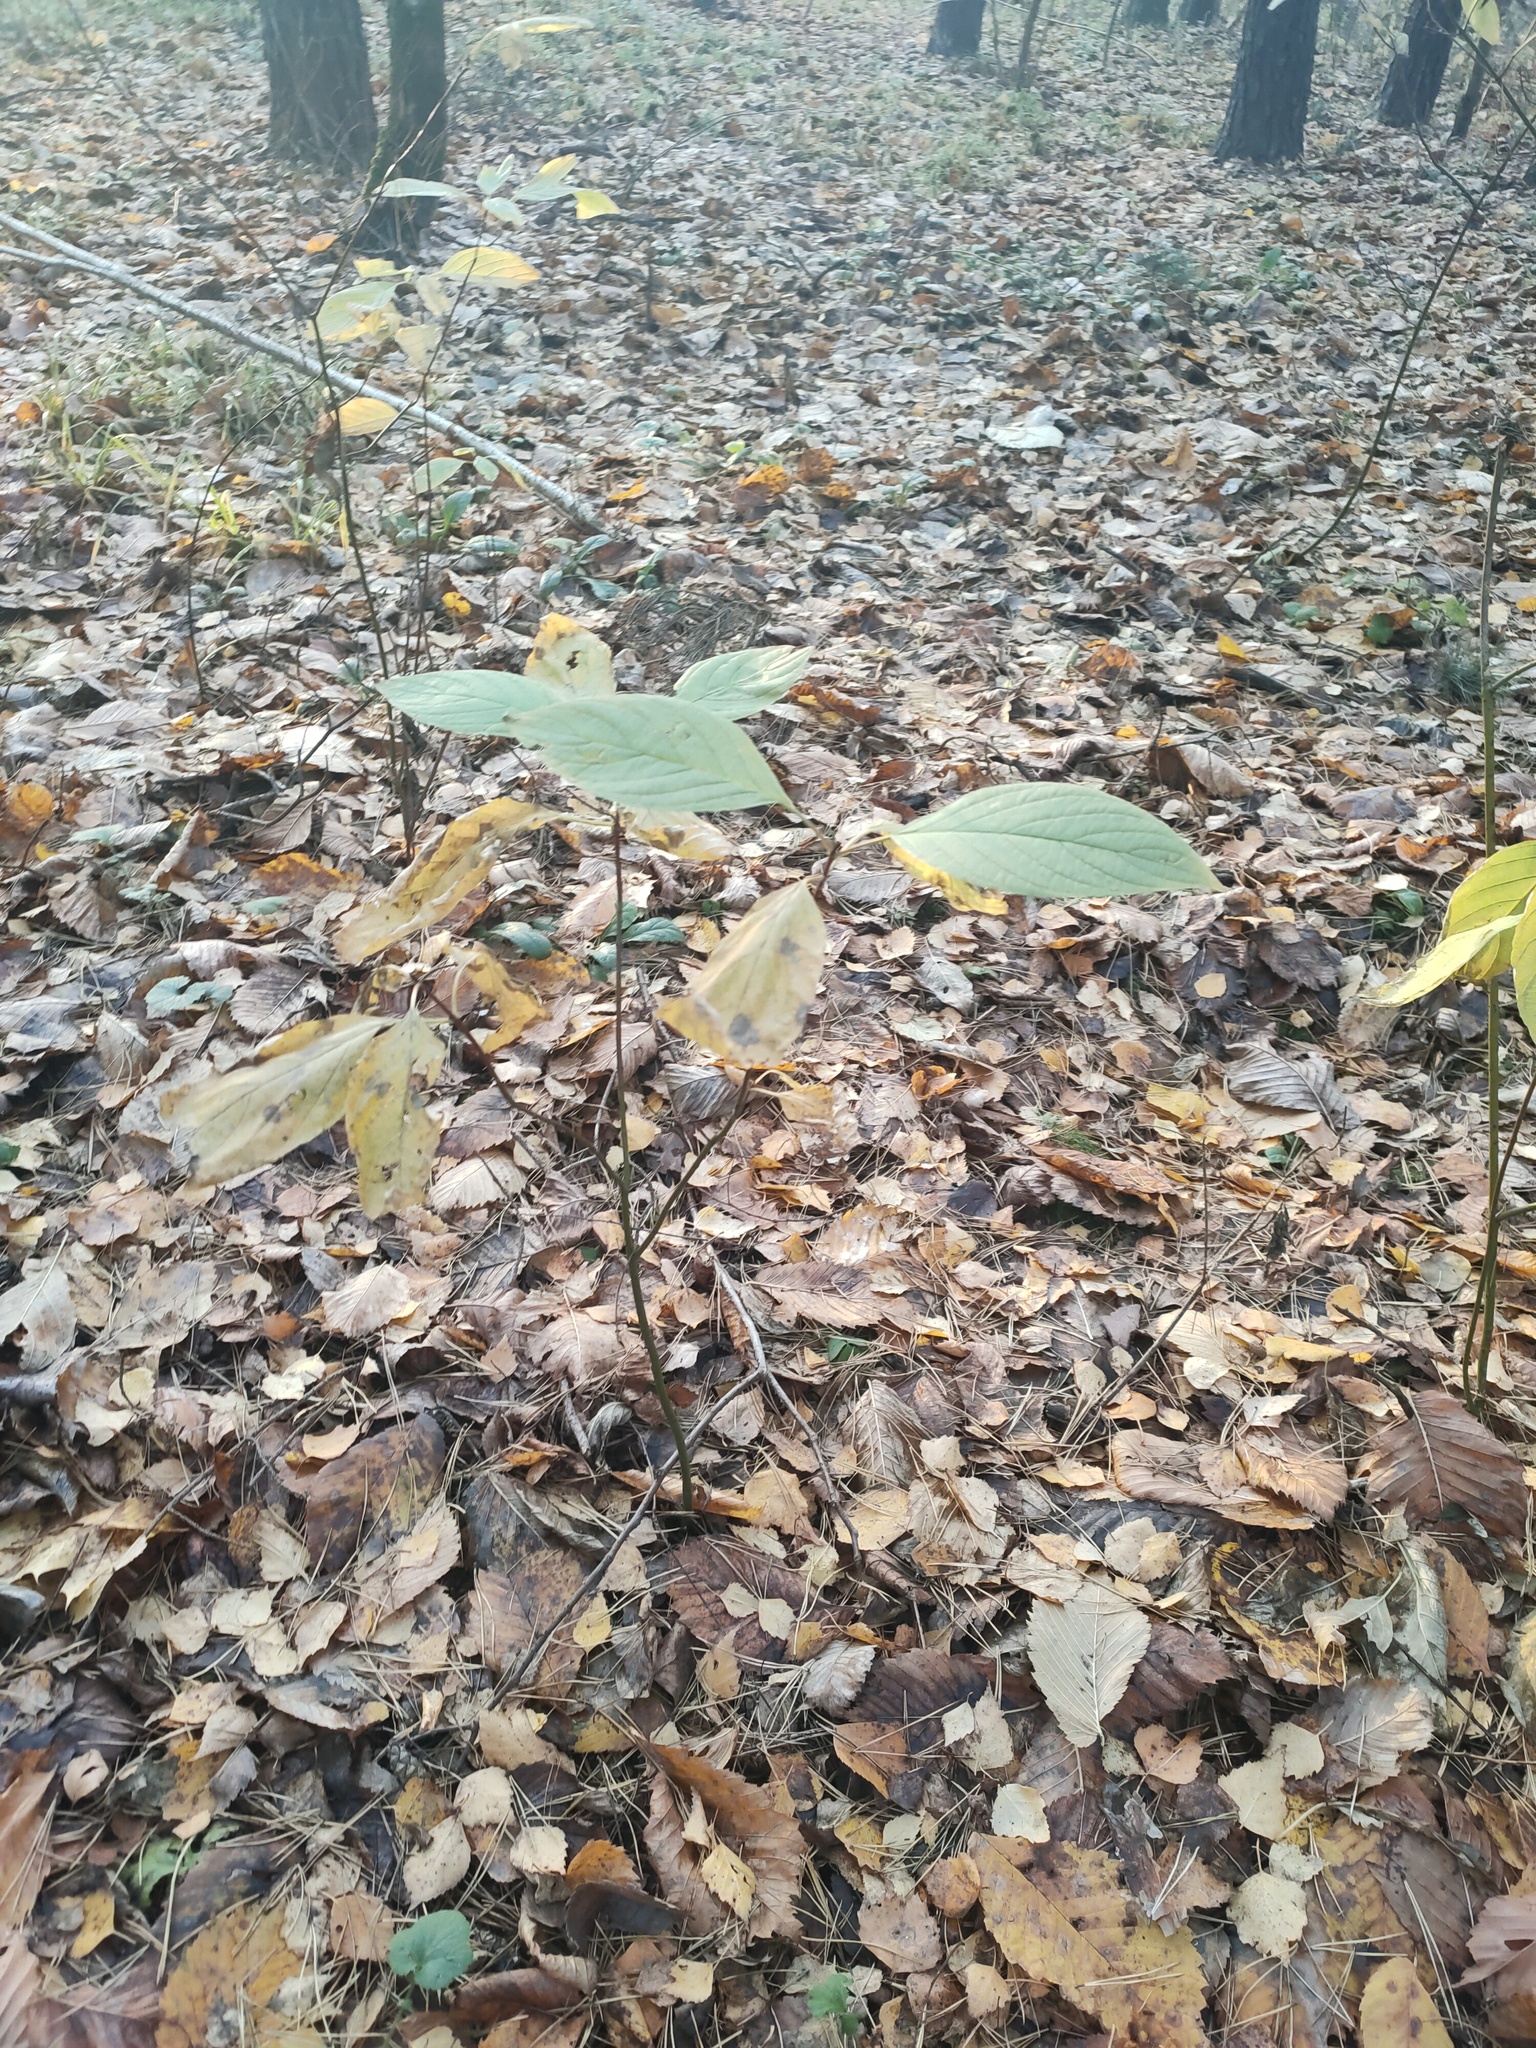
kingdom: Plantae
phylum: Tracheophyta
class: Magnoliopsida
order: Cornales
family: Cornaceae
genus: Cornus
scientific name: Cornus sericea
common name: Red-osier dogwood
